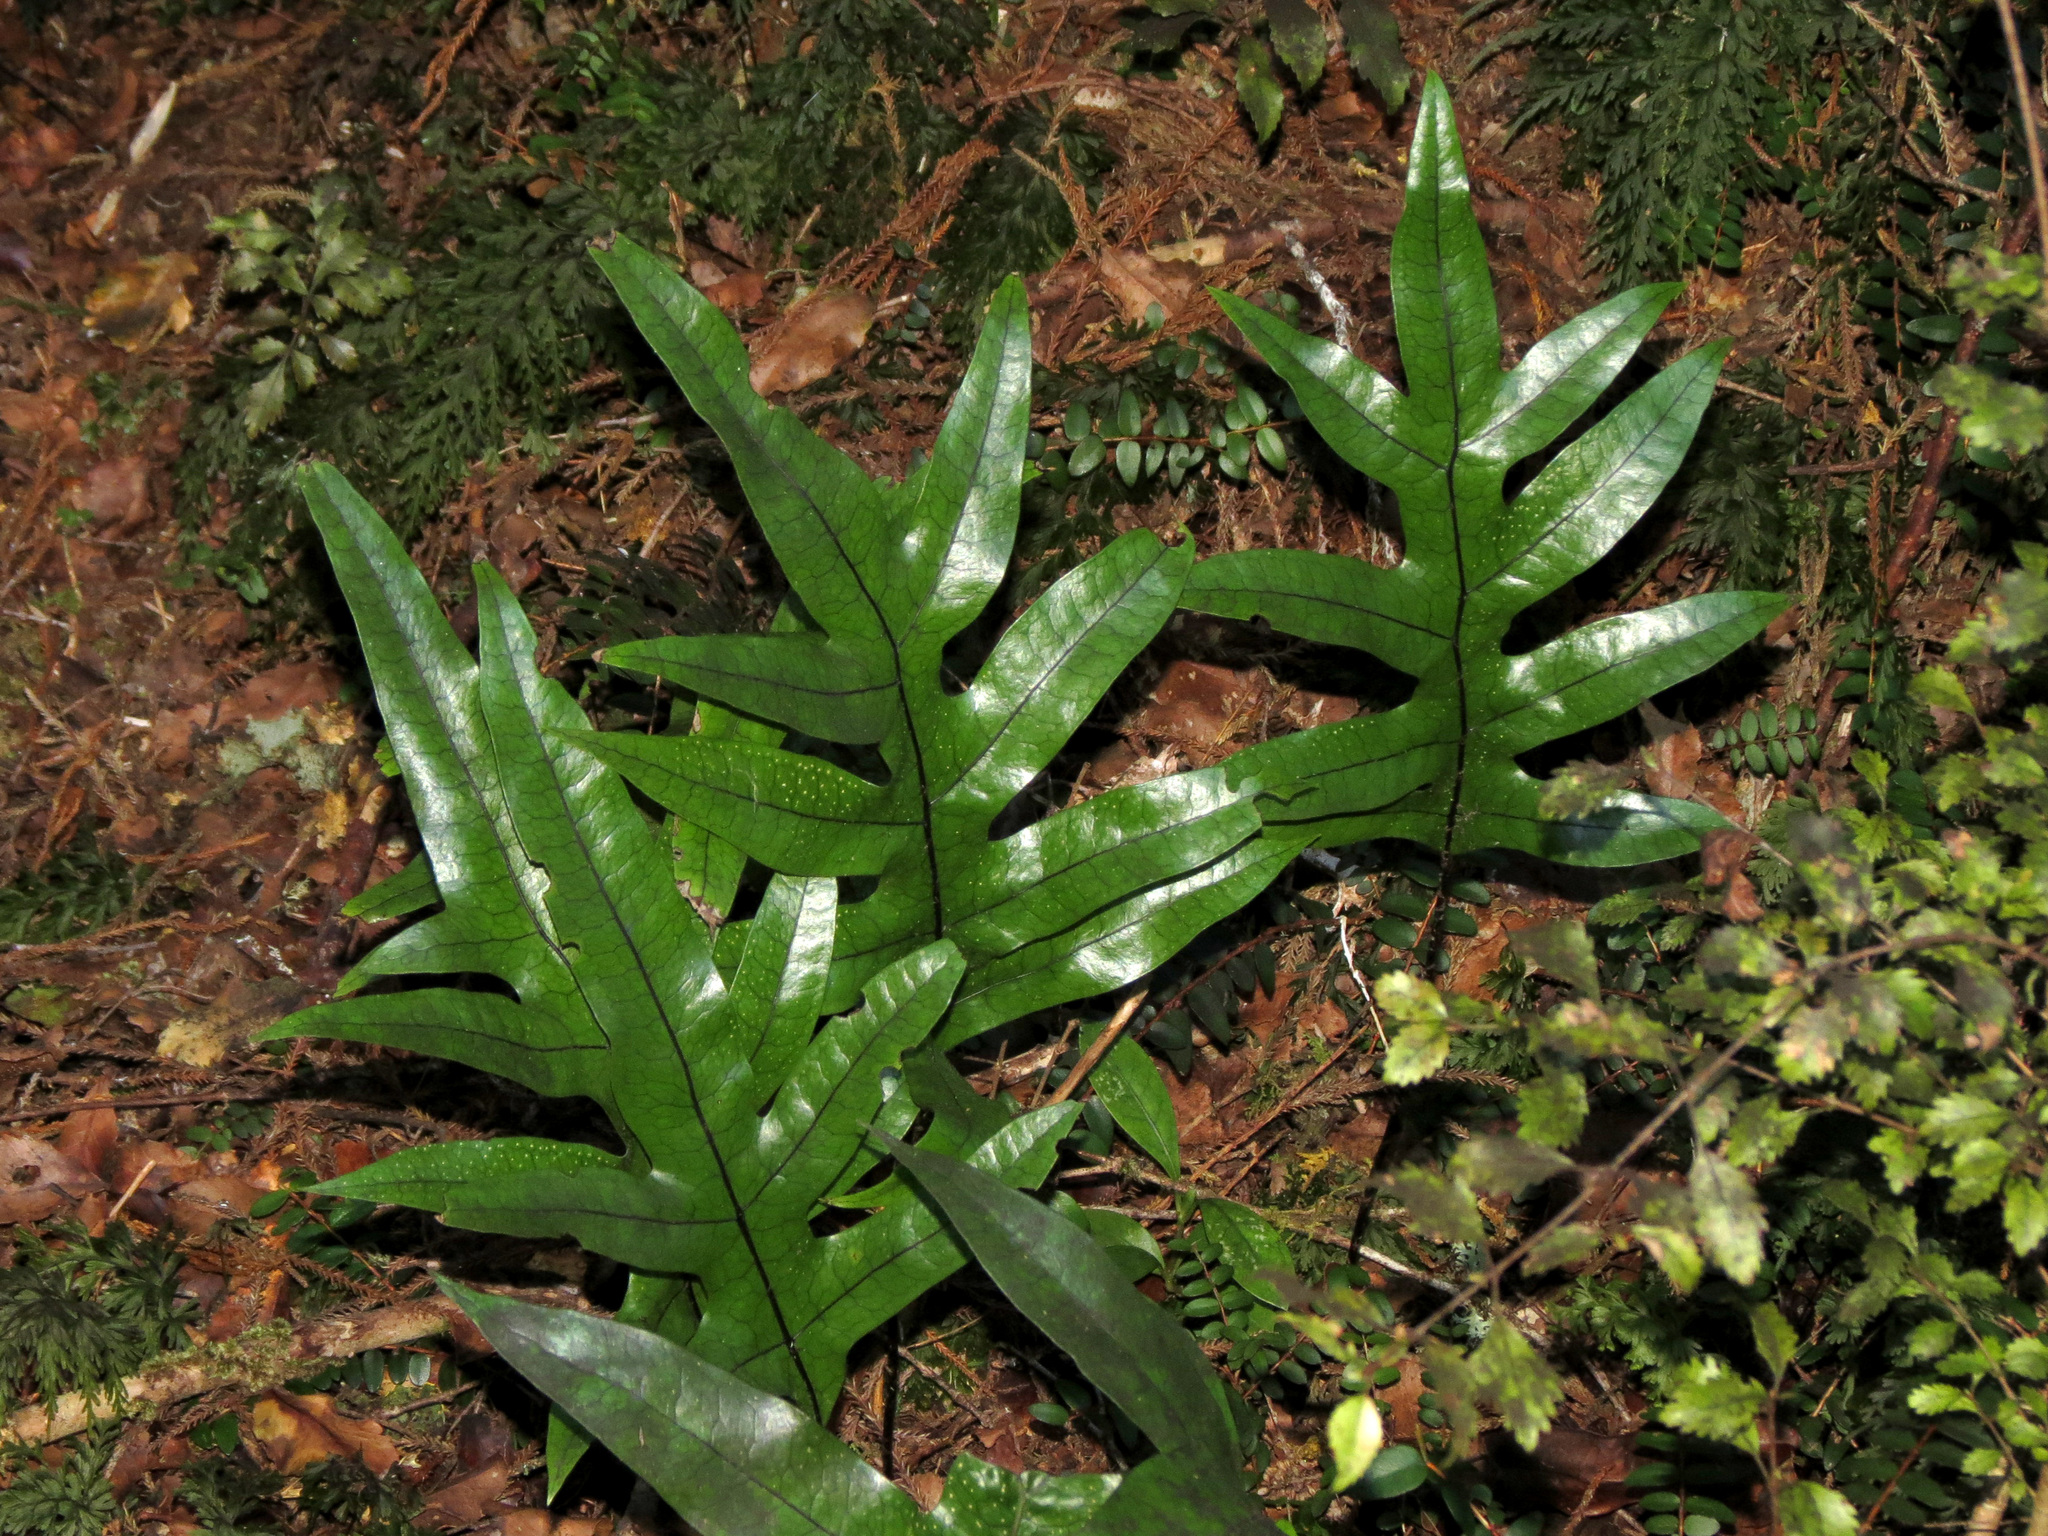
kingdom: Plantae
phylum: Tracheophyta
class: Polypodiopsida
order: Polypodiales
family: Polypodiaceae
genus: Lecanopteris
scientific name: Lecanopteris pustulata
